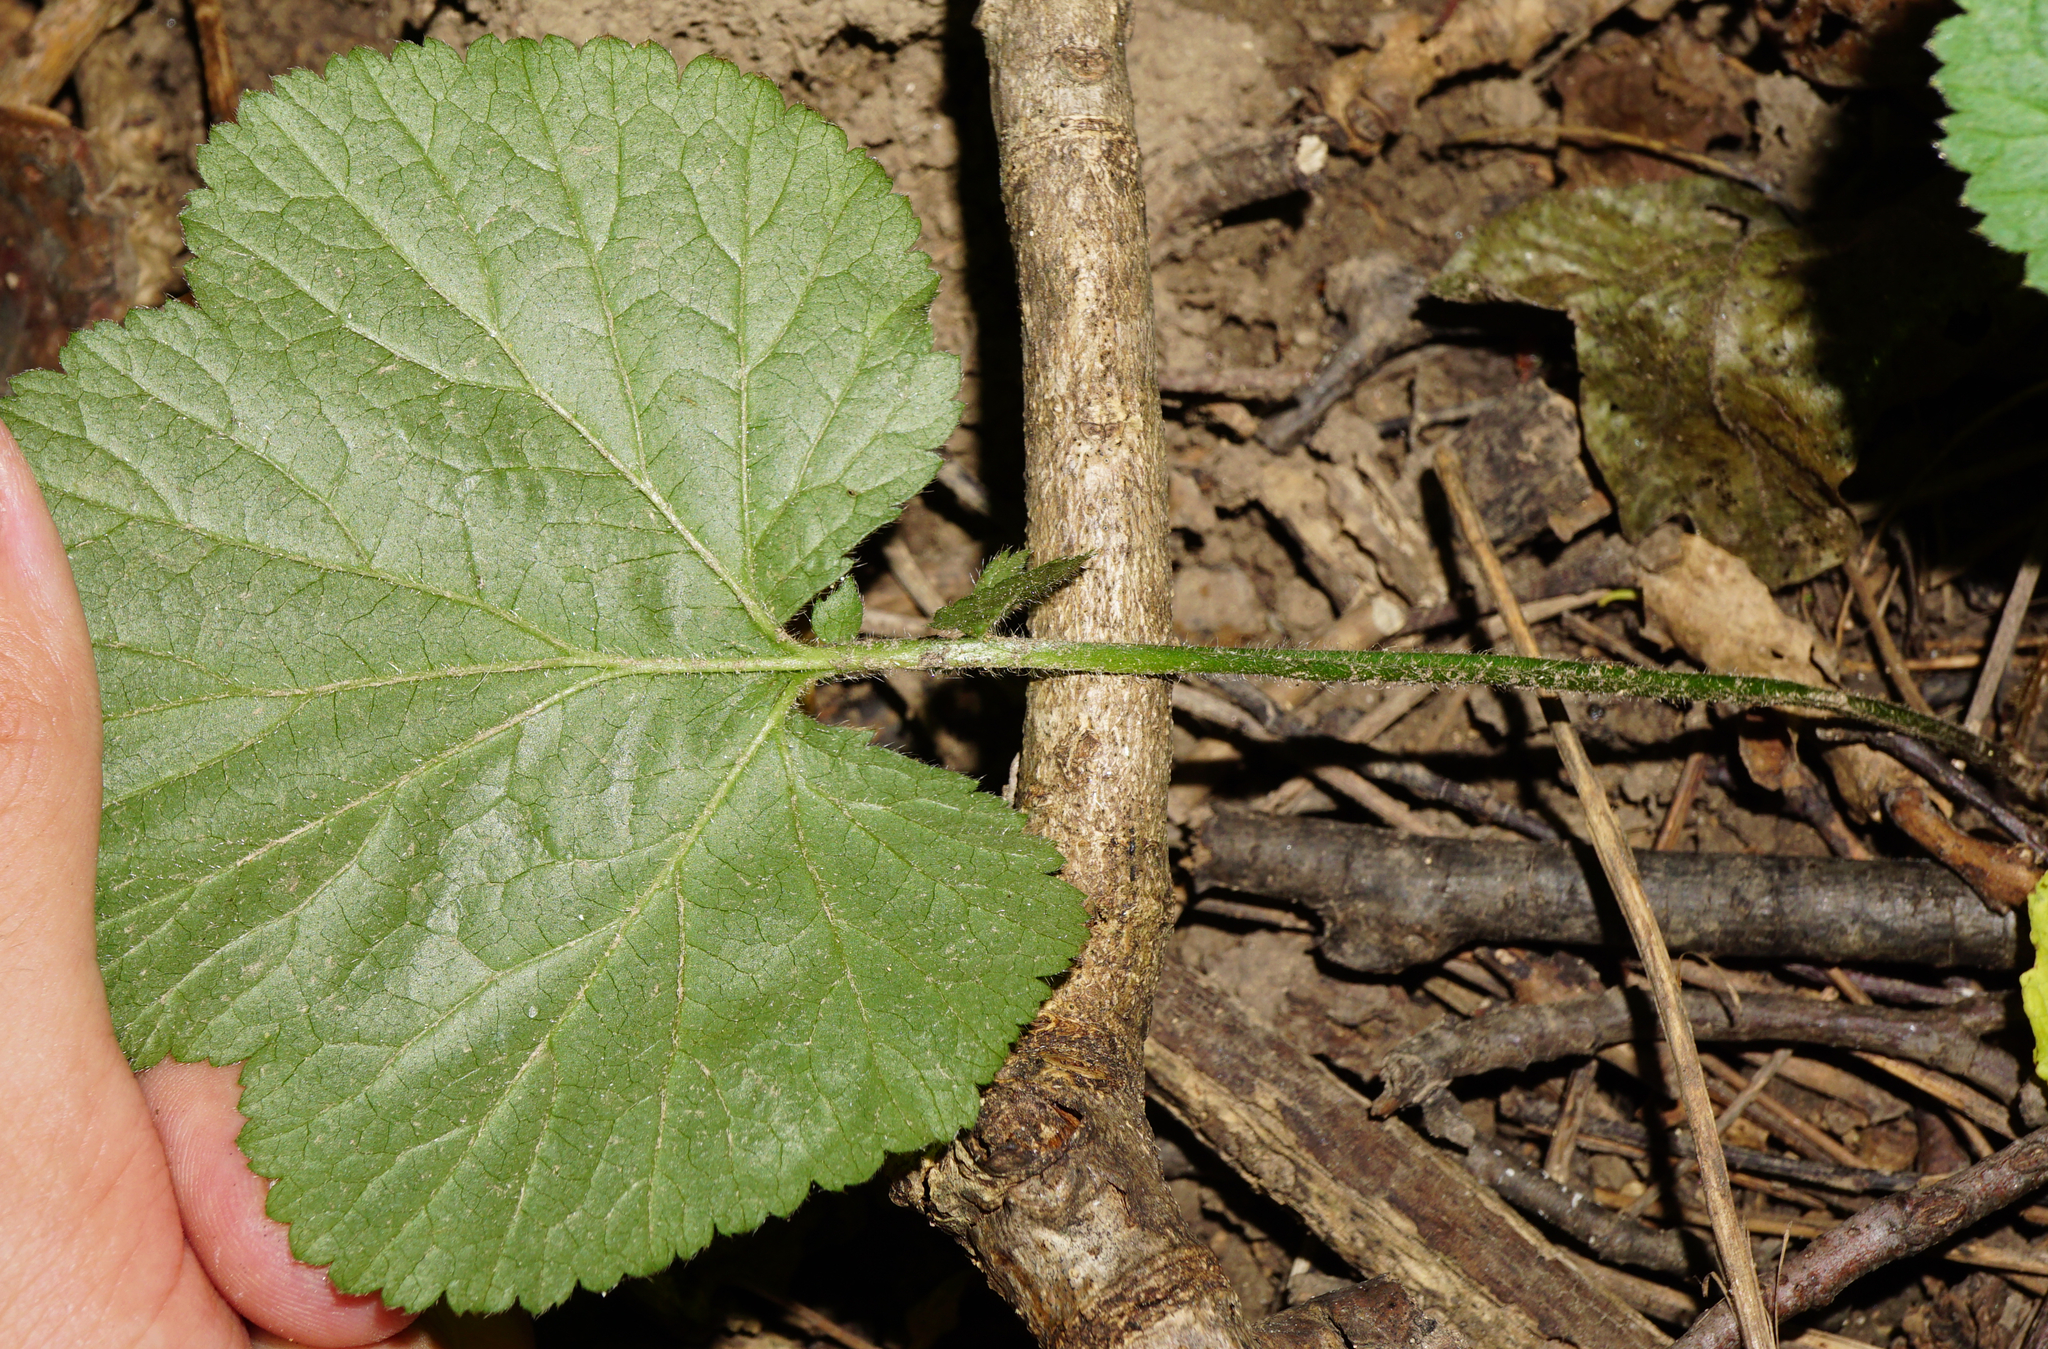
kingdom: Plantae
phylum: Tracheophyta
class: Magnoliopsida
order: Rosales
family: Rosaceae
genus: Geum
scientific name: Geum urbanum
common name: Wood avens
